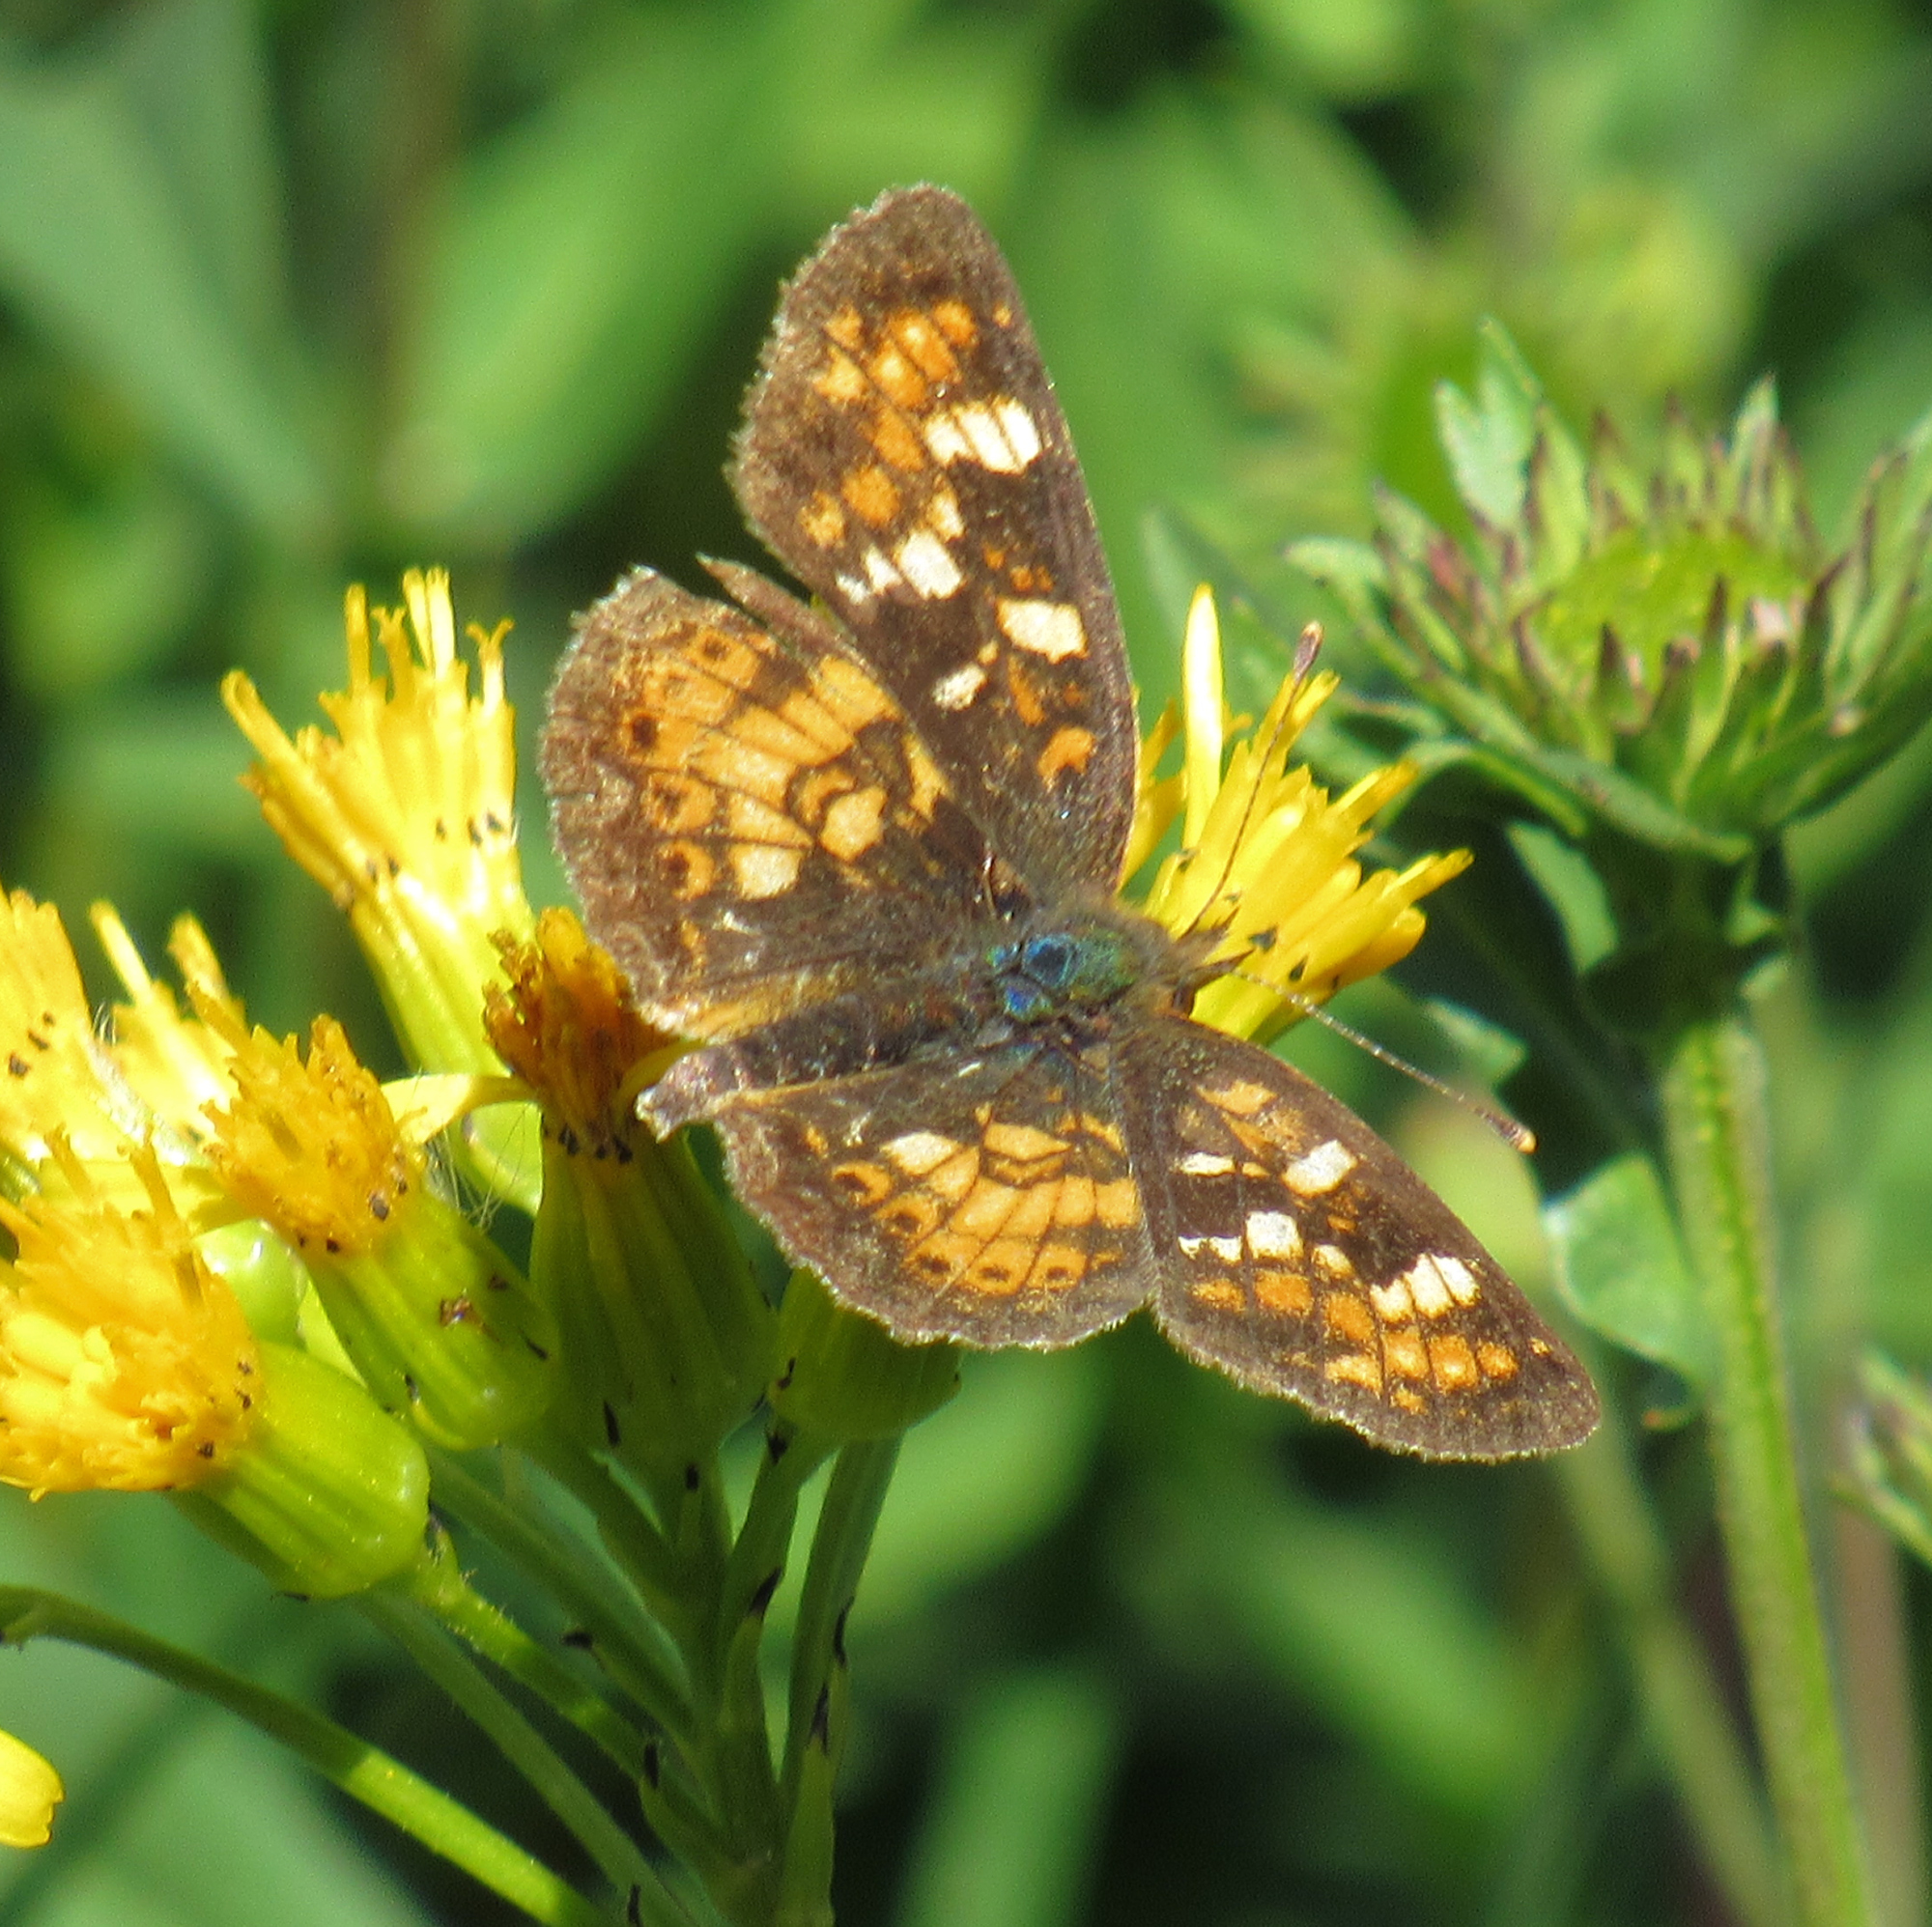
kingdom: Animalia
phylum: Arthropoda
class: Insecta
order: Lepidoptera
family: Nymphalidae
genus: Phyciodes
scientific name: Phyciodes tharos
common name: Pearl crescent
